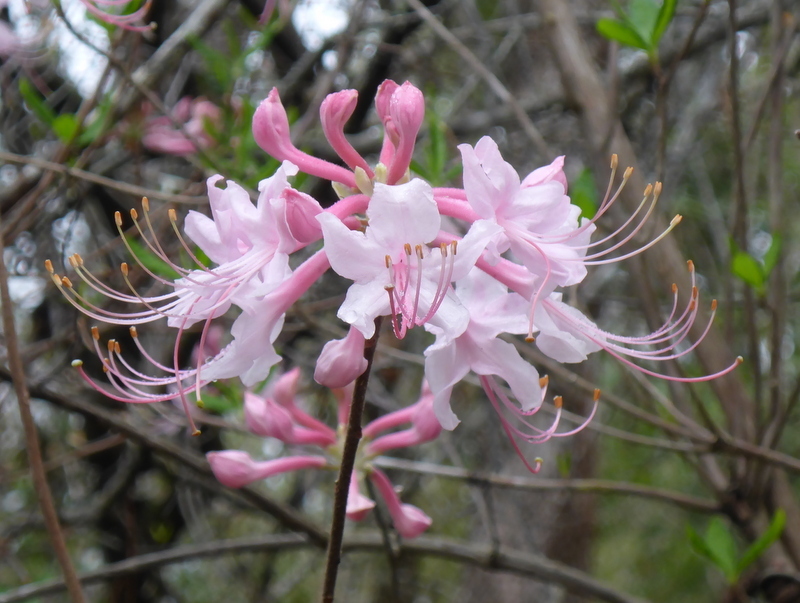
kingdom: Plantae
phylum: Tracheophyta
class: Magnoliopsida
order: Ericales
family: Ericaceae
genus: Rhododendron
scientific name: Rhododendron canescens
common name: Mountain azalea
